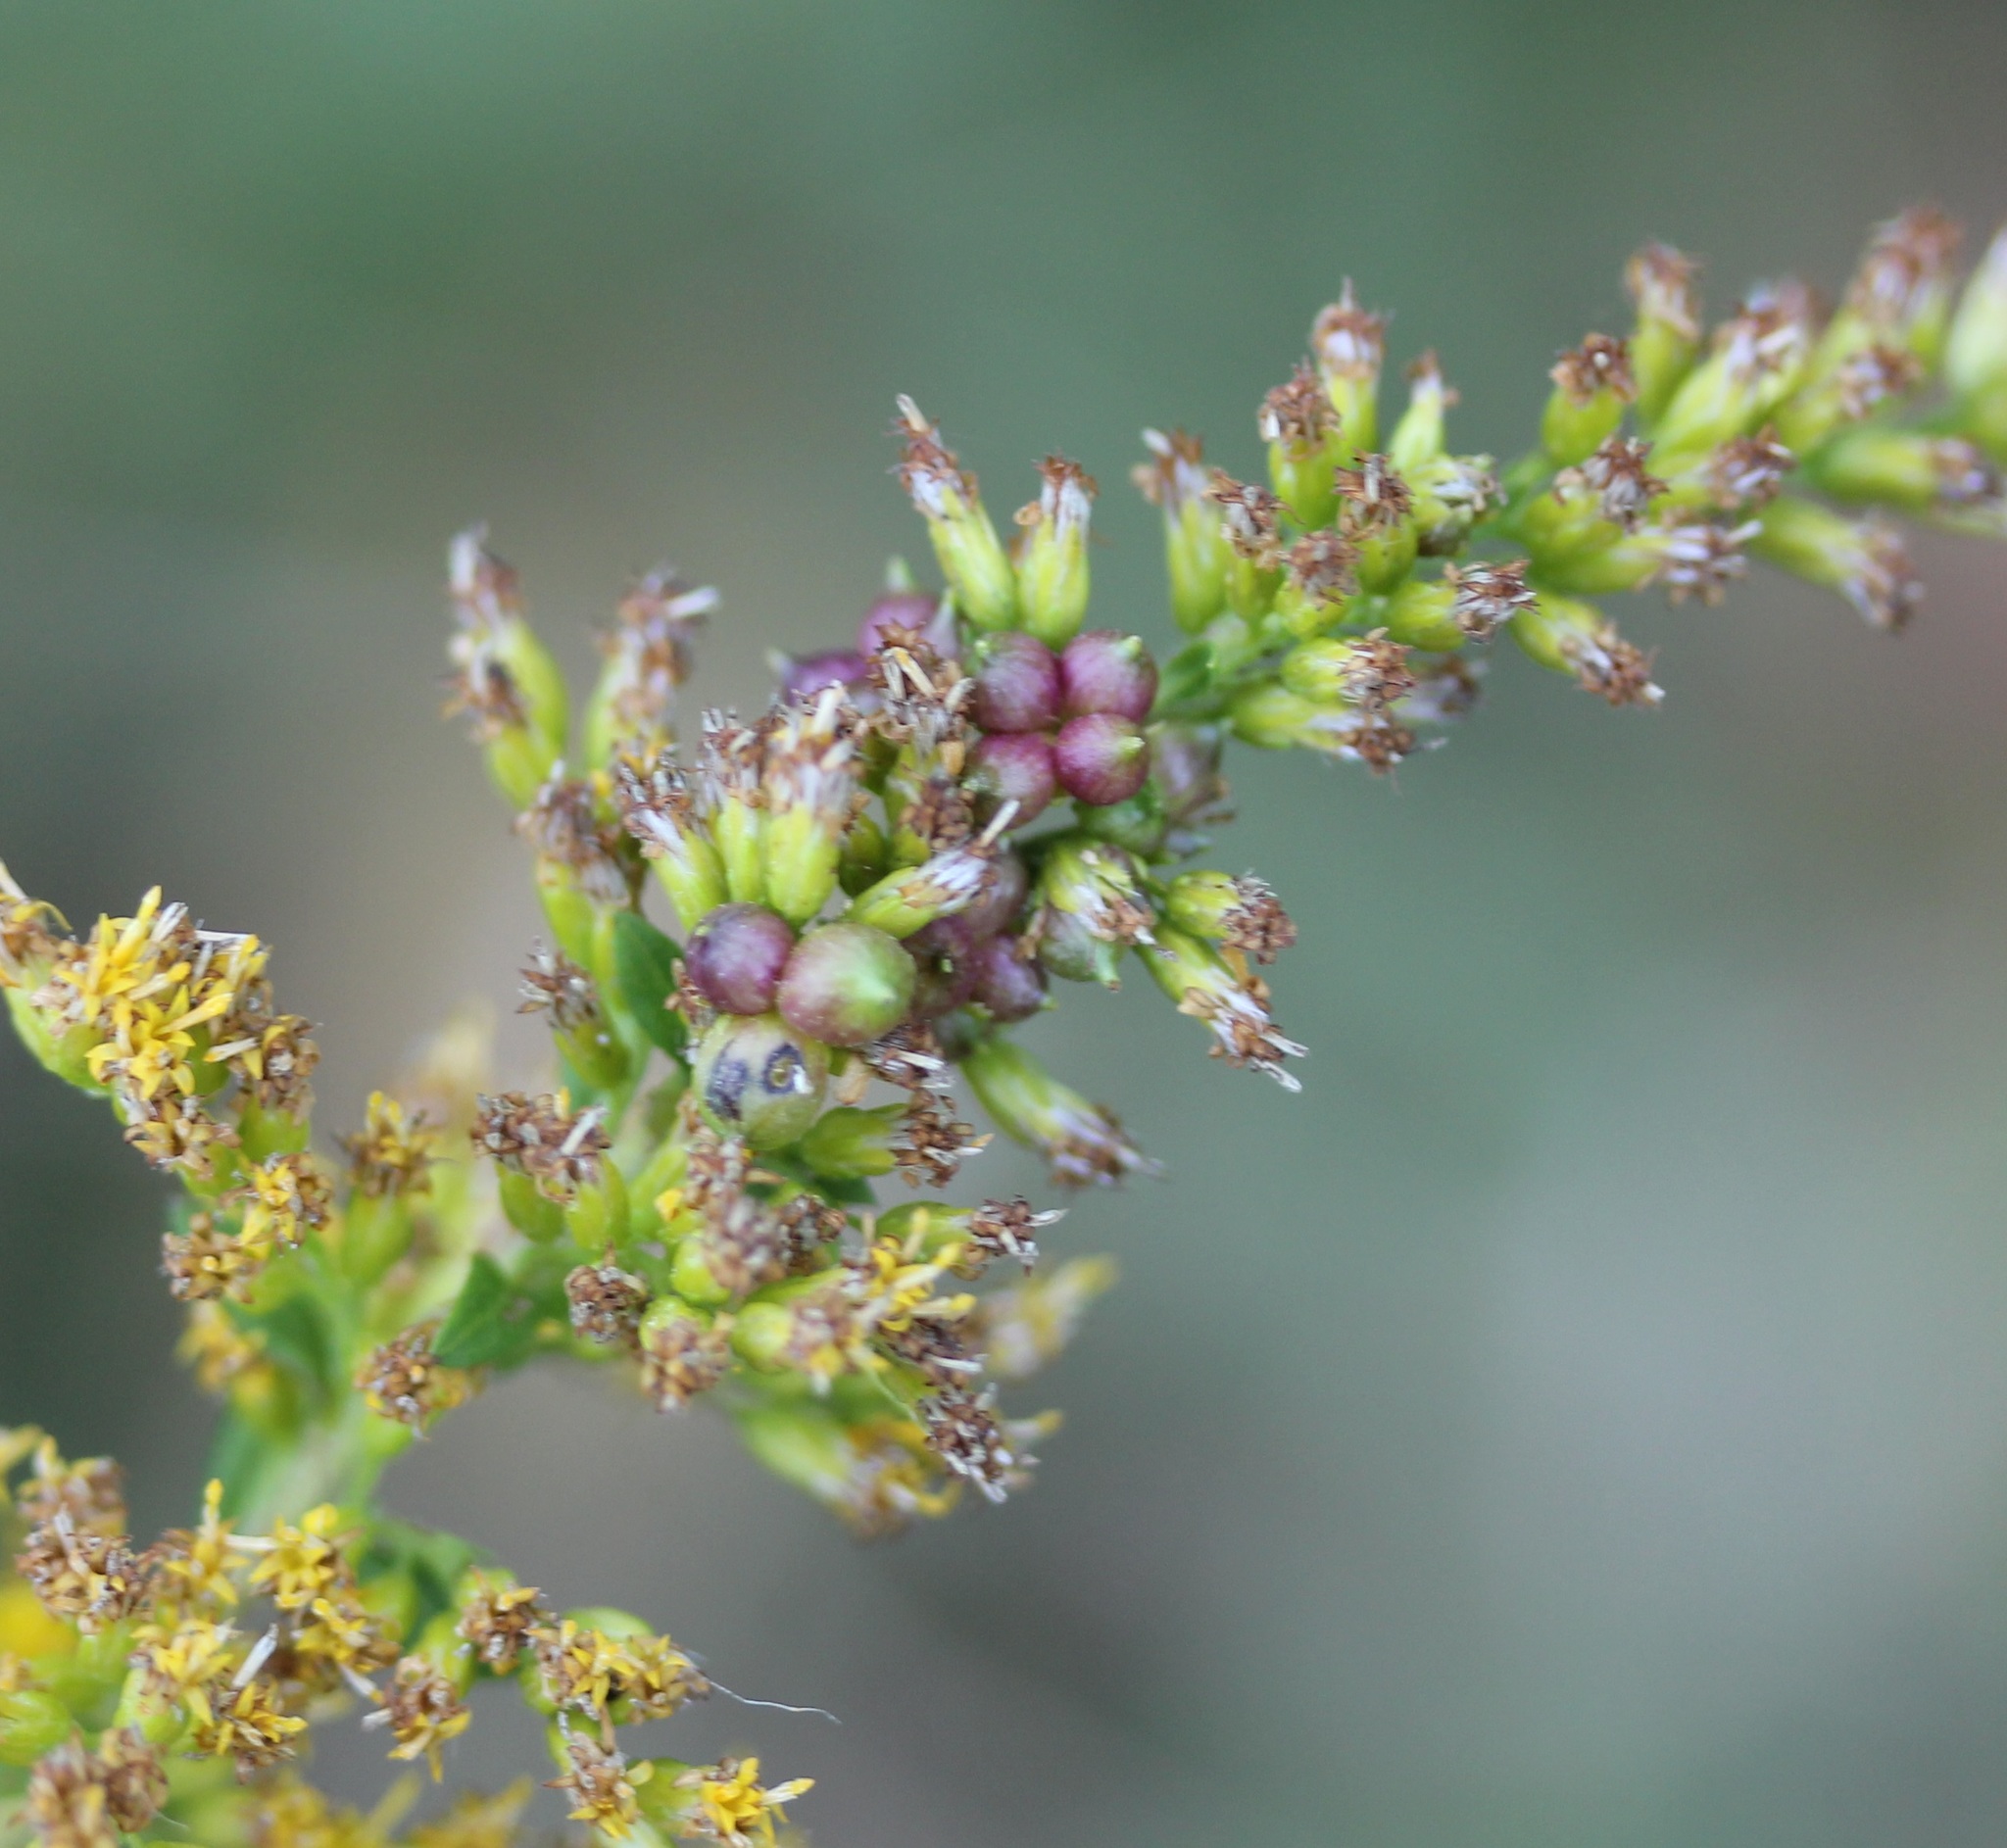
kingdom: Animalia
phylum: Arthropoda
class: Insecta
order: Diptera
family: Cecidomyiidae
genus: Schizomyia
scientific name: Schizomyia racemicola
